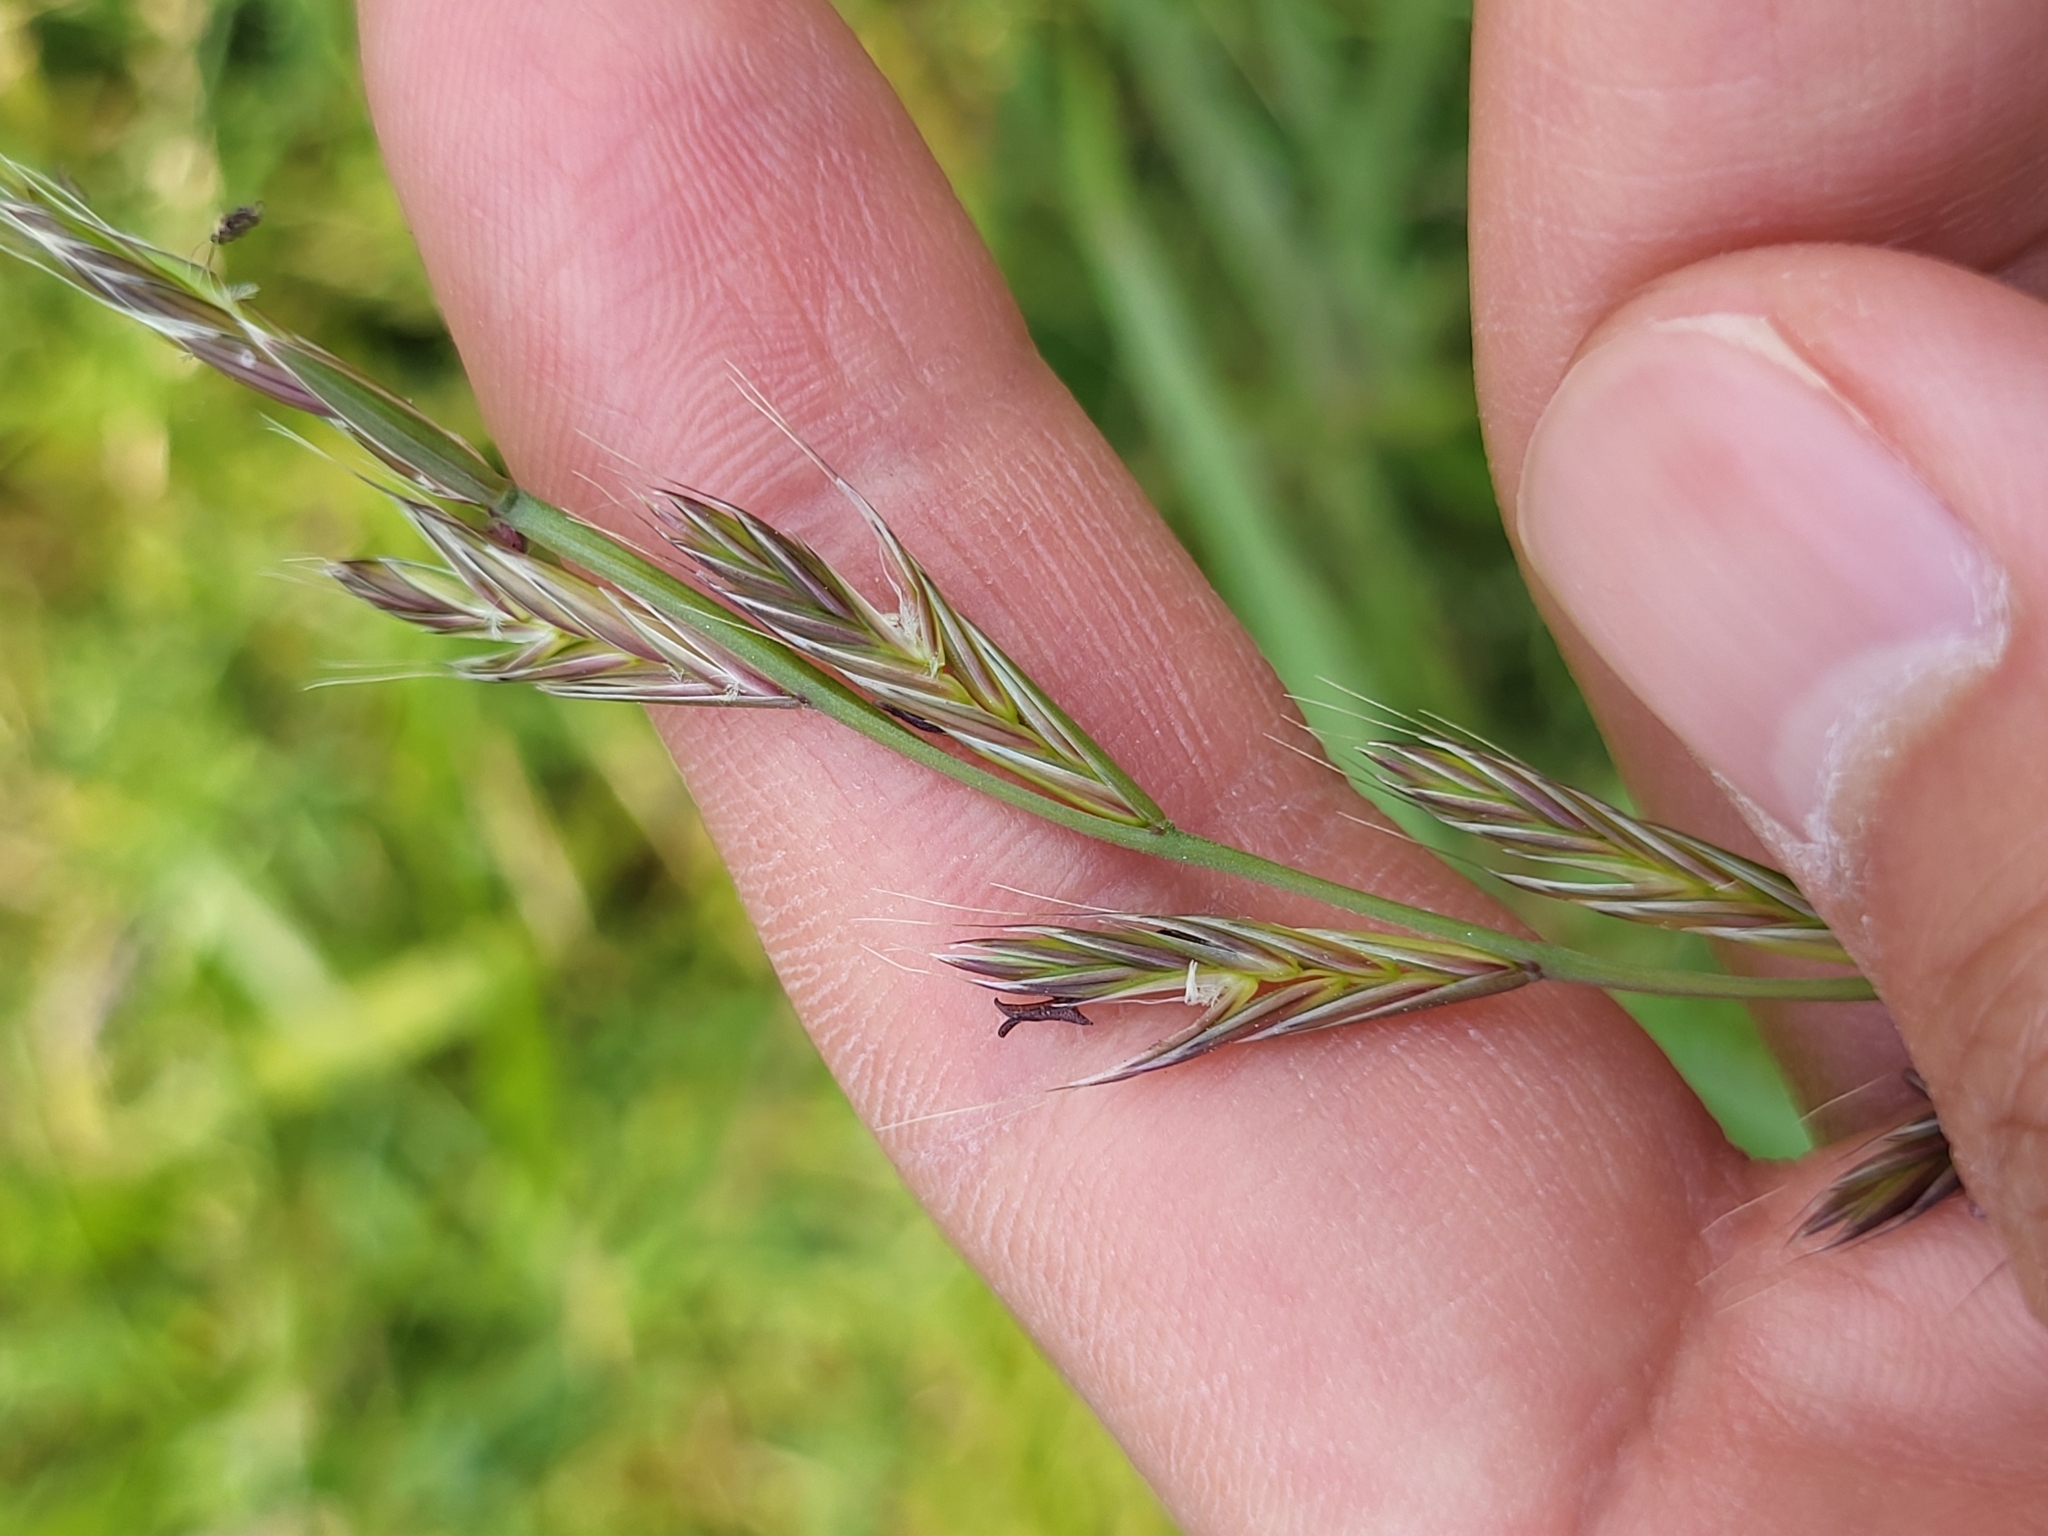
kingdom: Plantae
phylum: Tracheophyta
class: Liliopsida
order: Poales
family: Poaceae
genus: Lolium
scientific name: Lolium multiflorum
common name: Annual ryegrass
